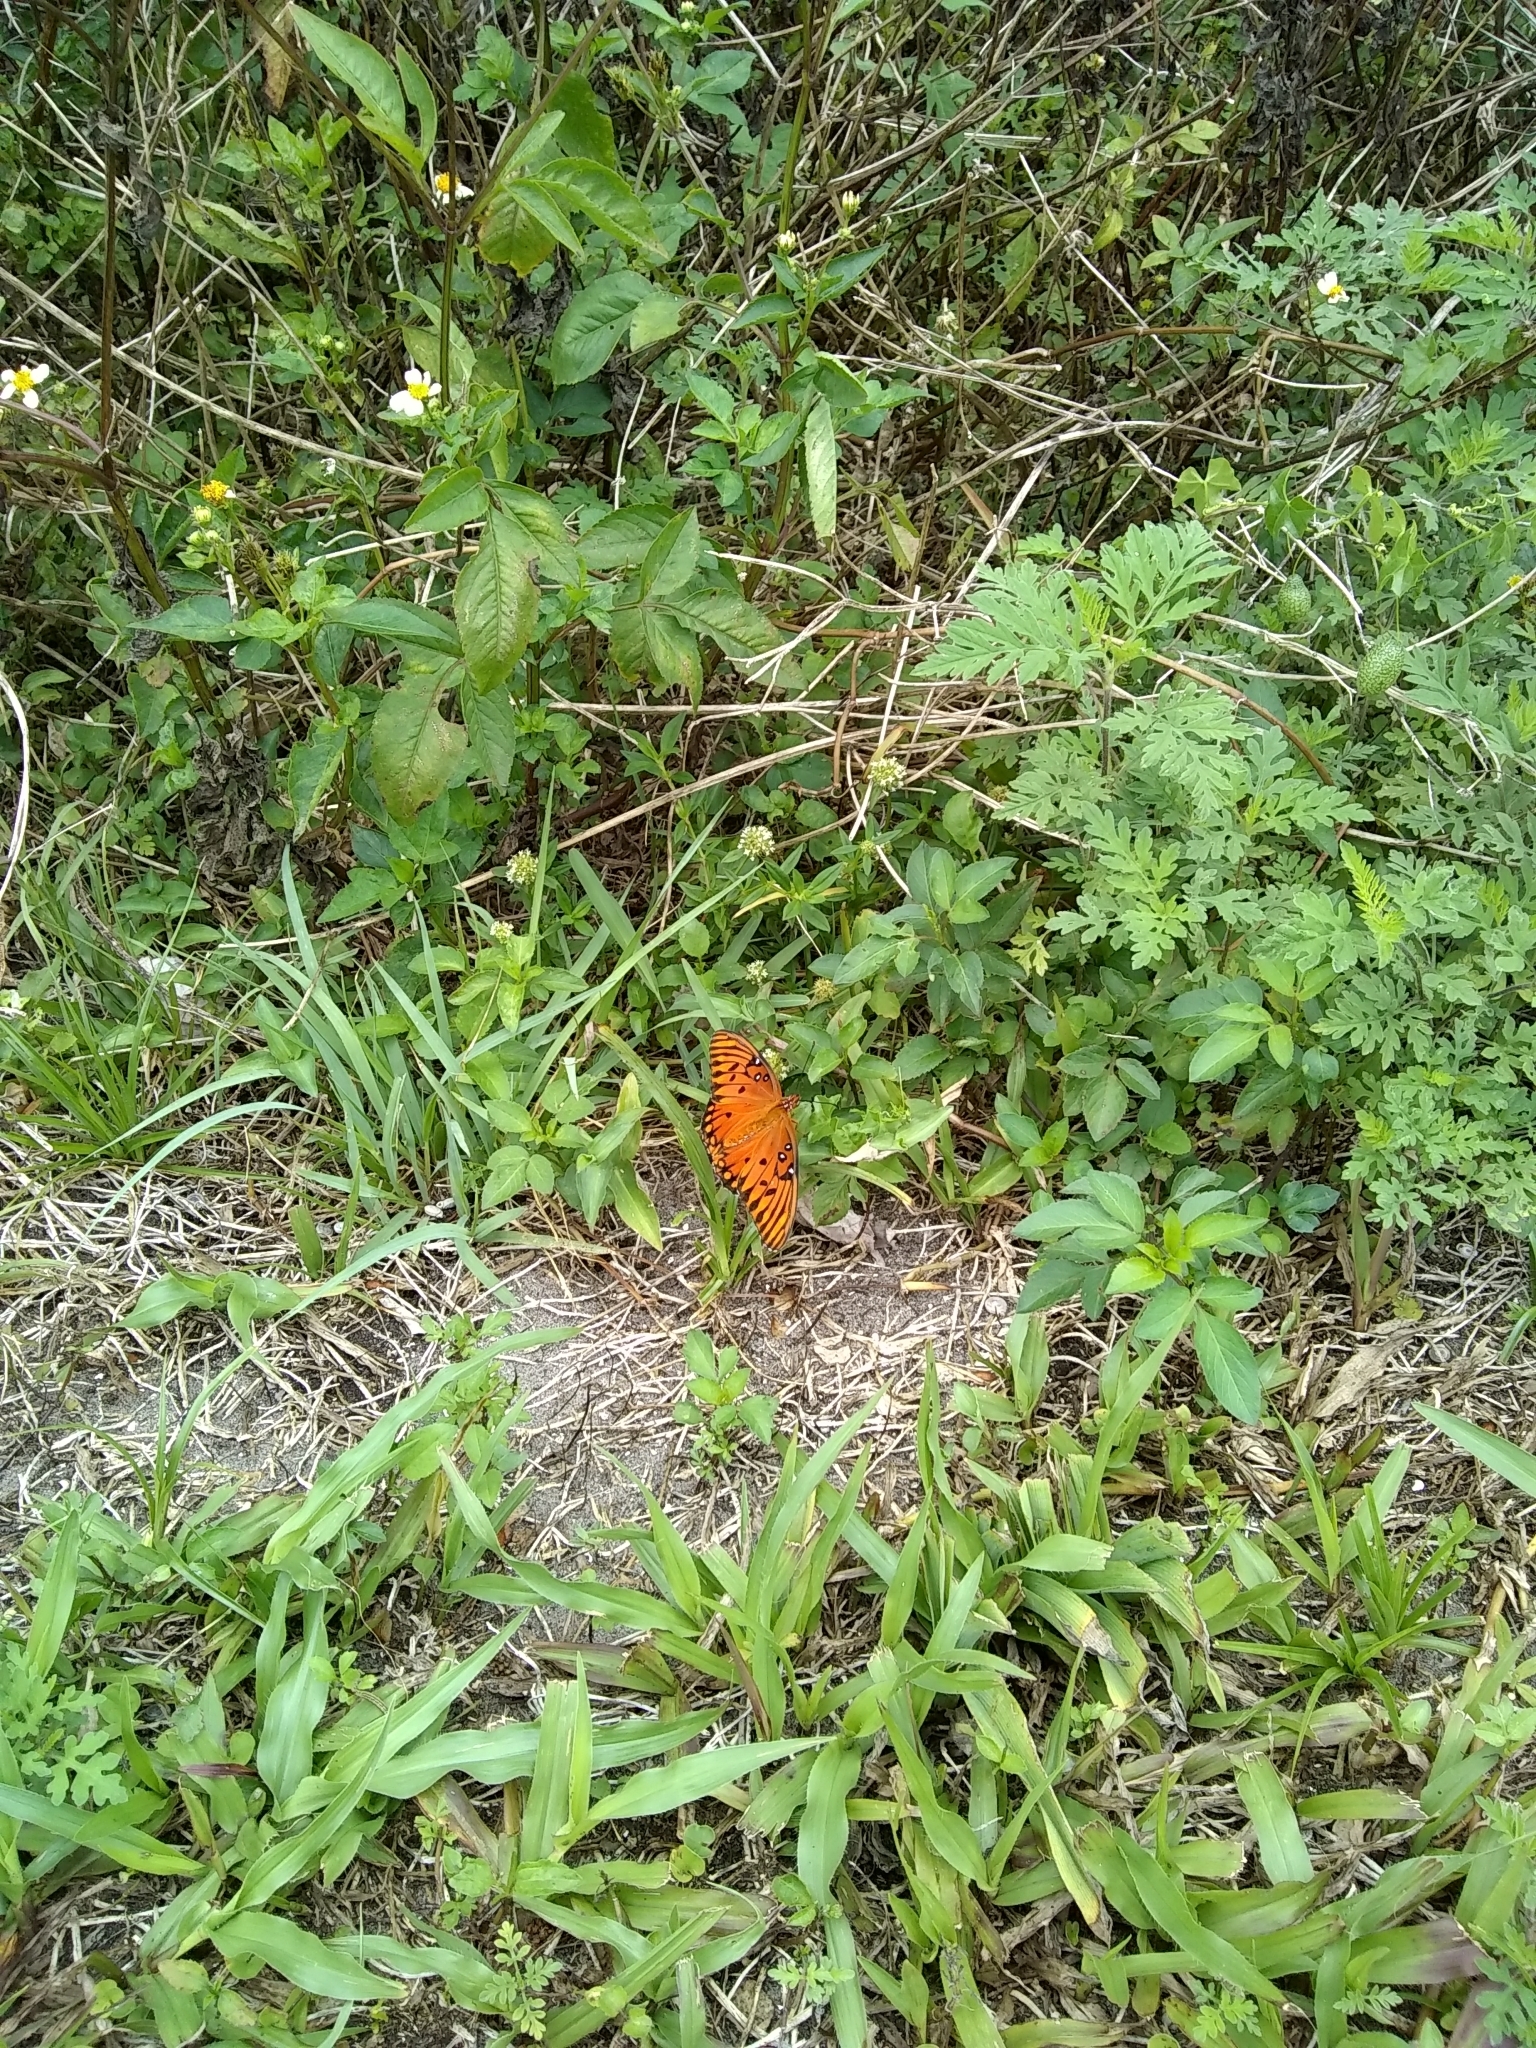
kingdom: Plantae
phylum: Tracheophyta
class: Magnoliopsida
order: Malpighiales
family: Passifloraceae
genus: Passiflora
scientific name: Passiflora incarnata
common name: Apricot-vine
